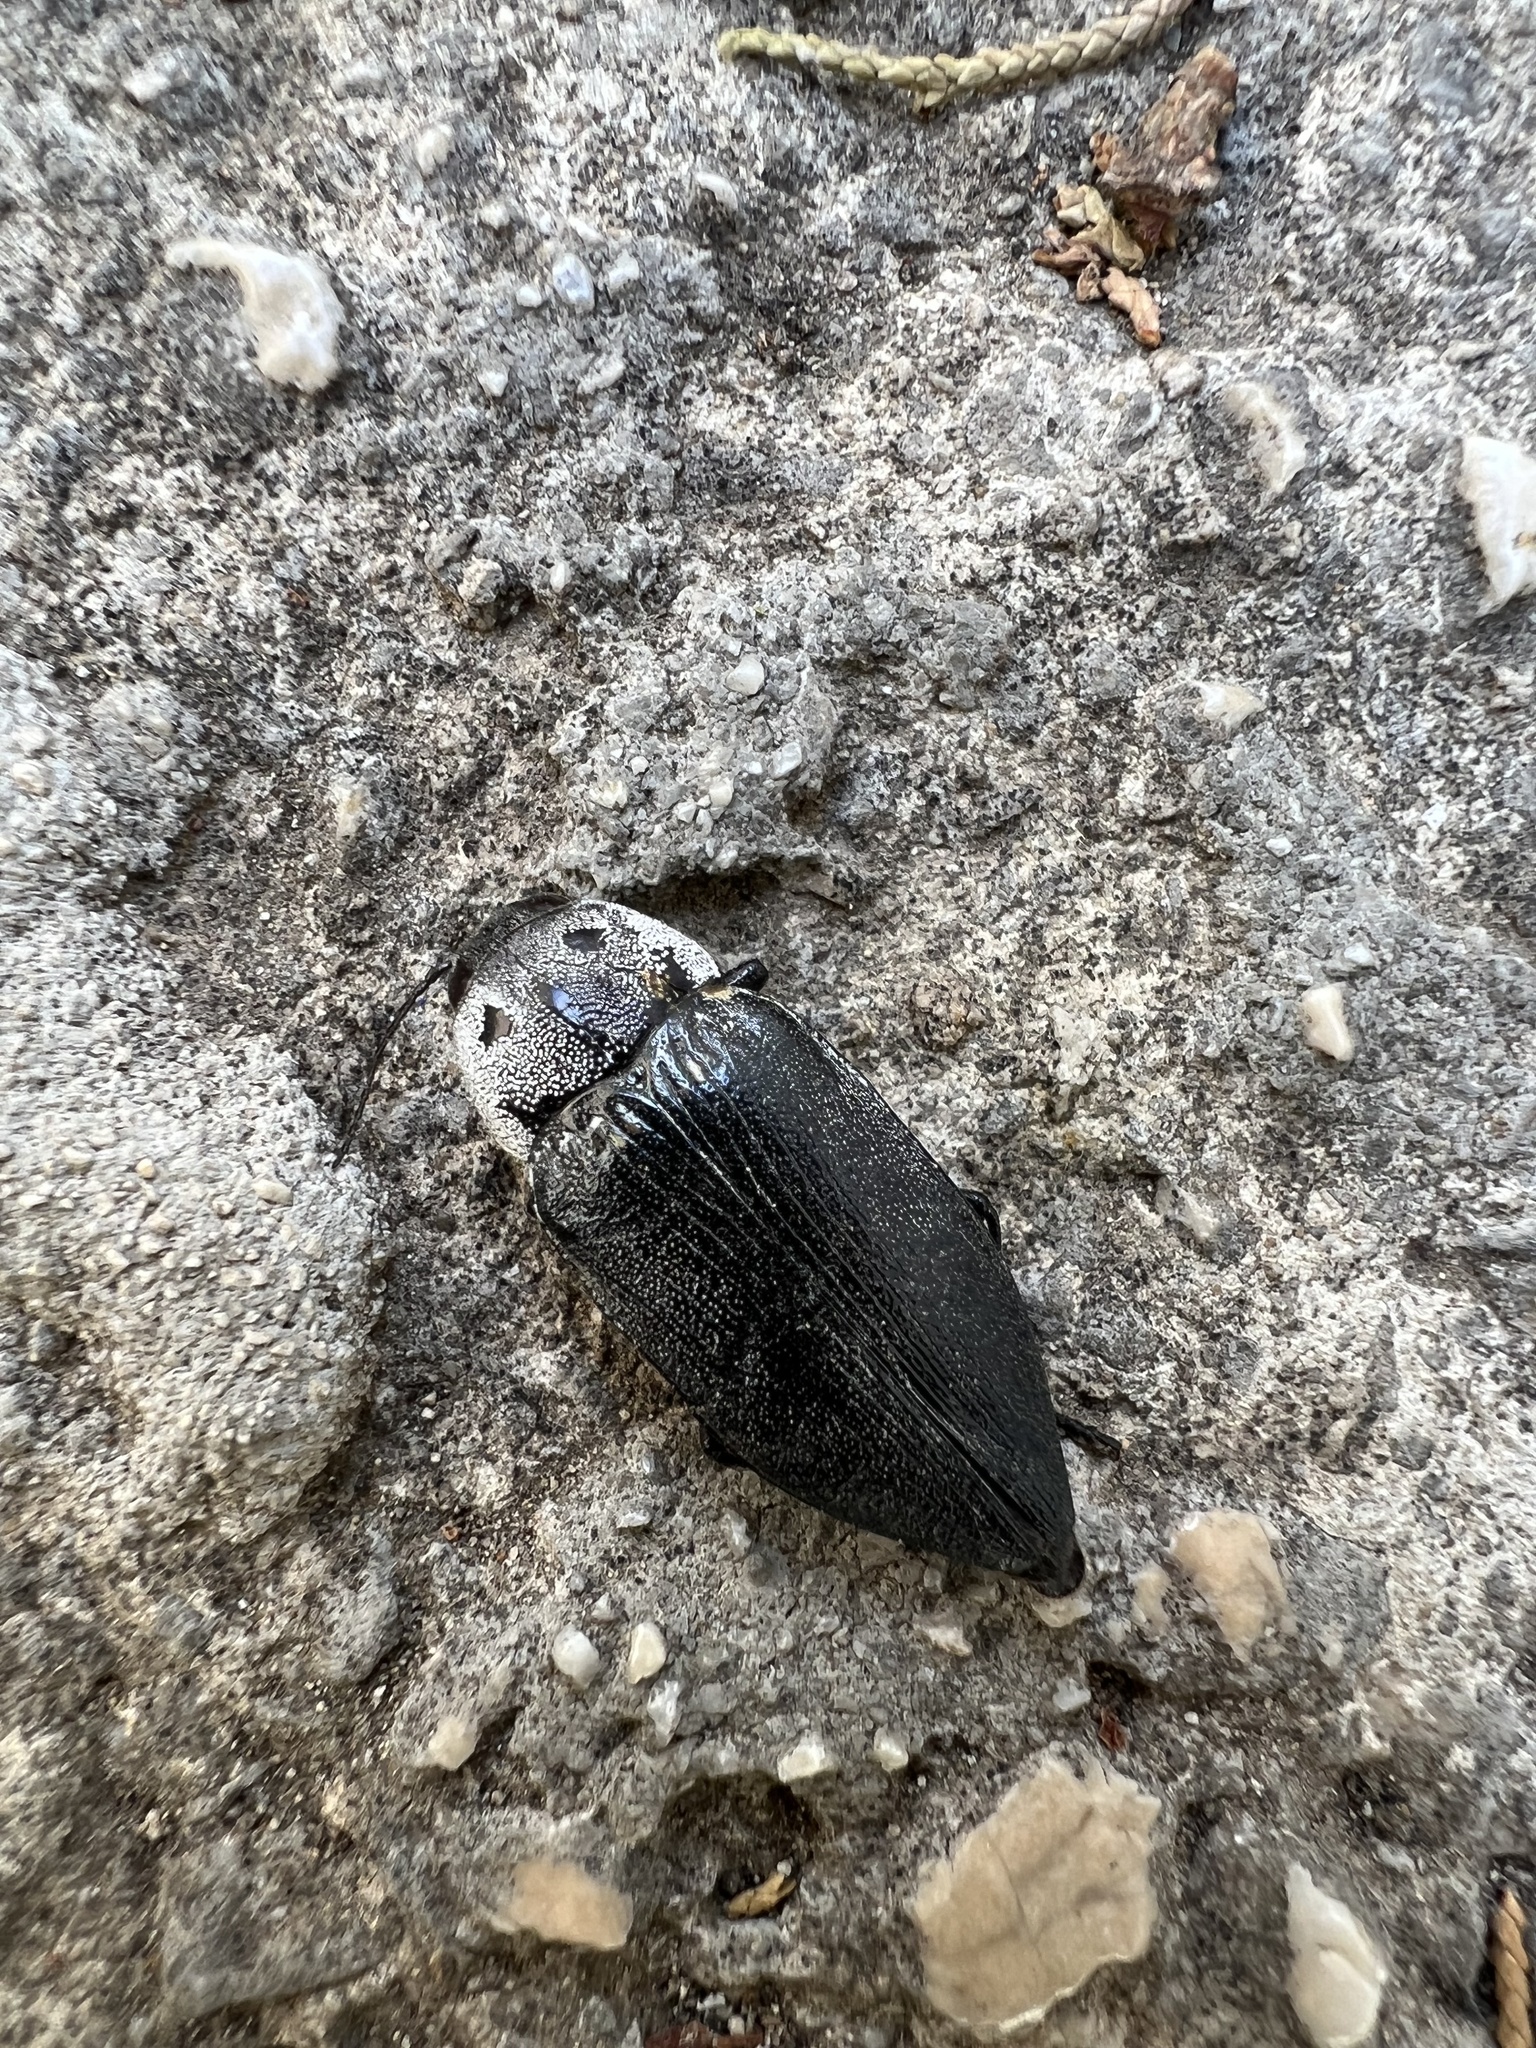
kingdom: Animalia
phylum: Arthropoda
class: Insecta
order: Coleoptera
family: Buprestidae
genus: Buprestis
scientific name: Buprestis cupressi
